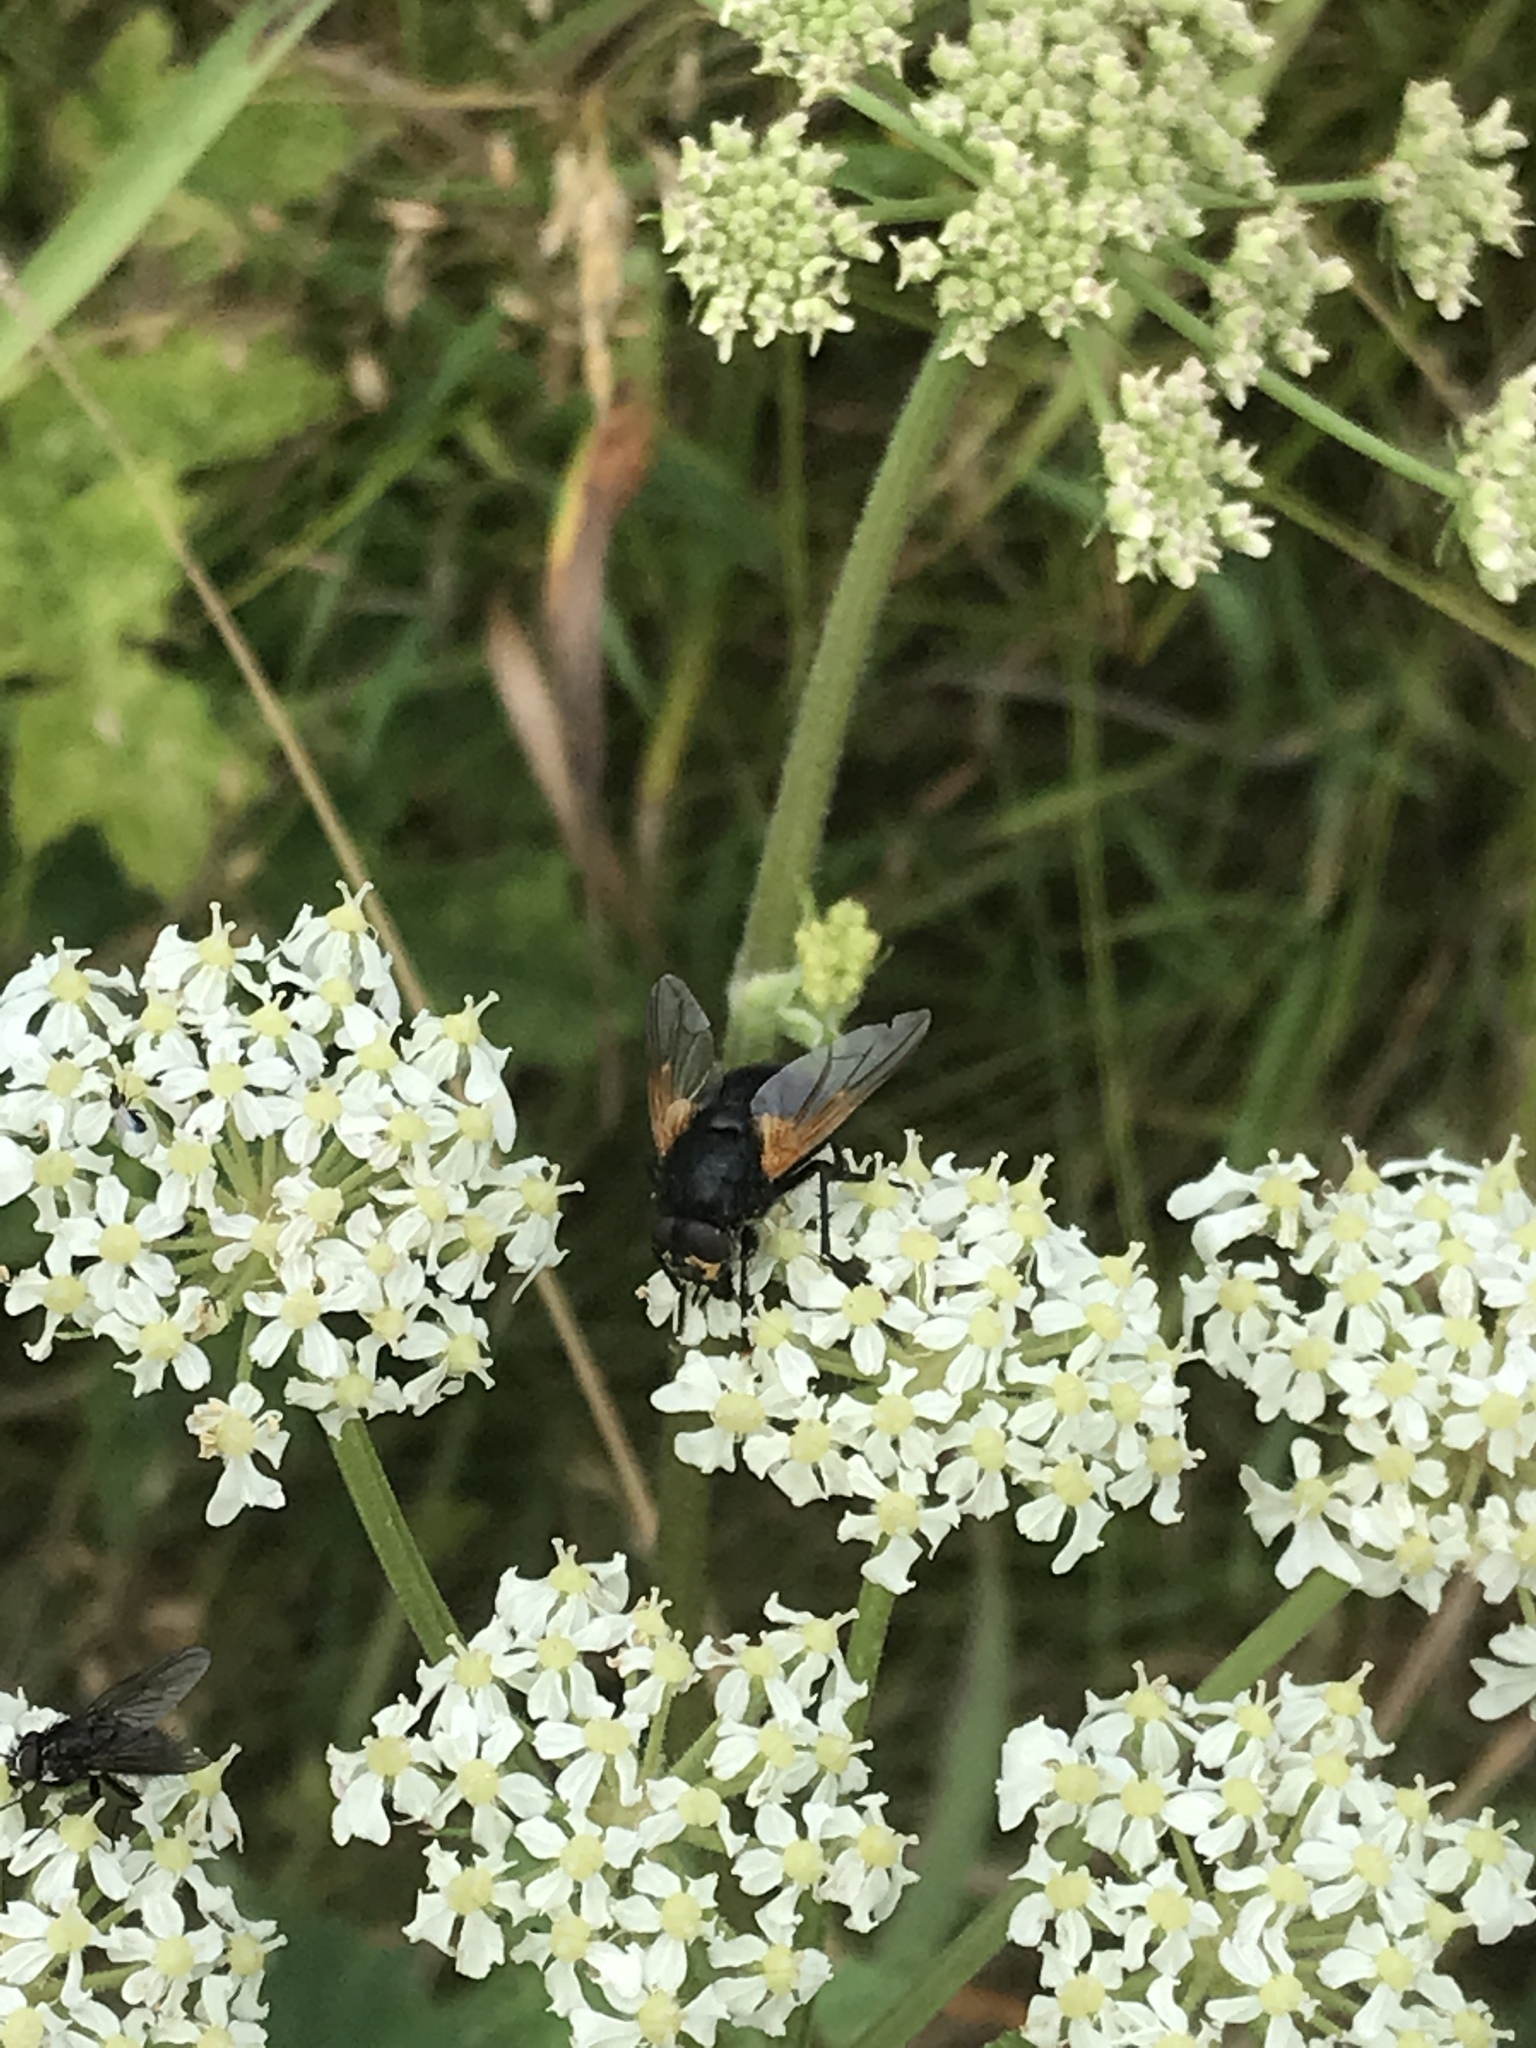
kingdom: Animalia
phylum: Arthropoda
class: Insecta
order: Diptera
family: Muscidae
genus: Mesembrina
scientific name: Mesembrina meridiana
